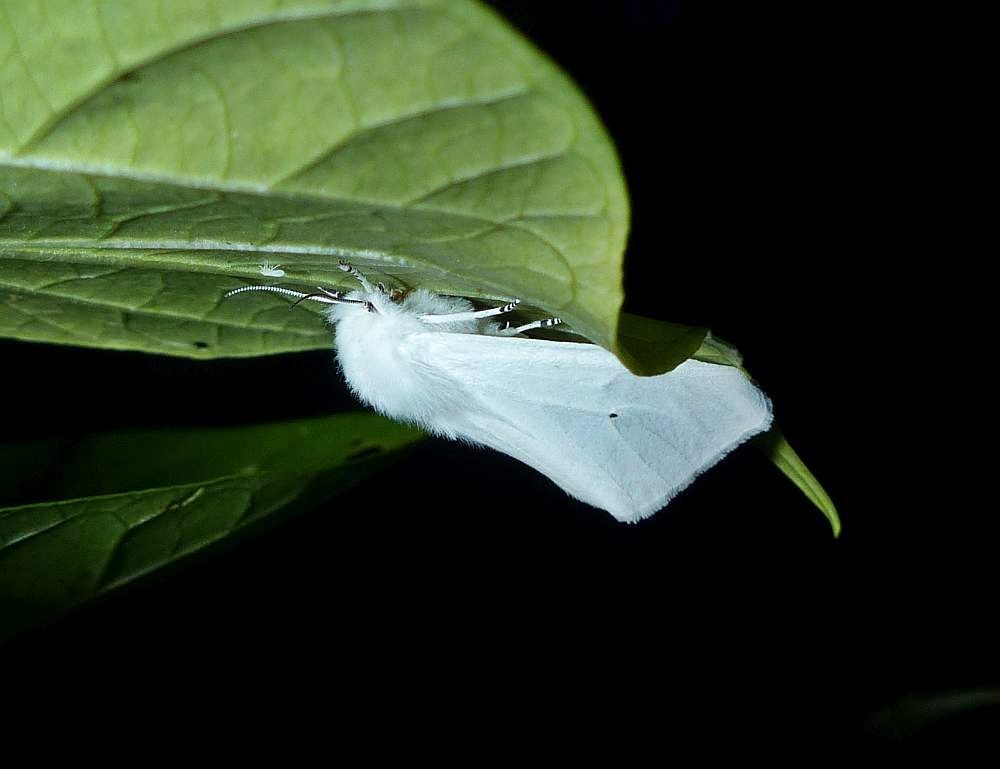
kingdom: Animalia
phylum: Arthropoda
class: Insecta
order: Lepidoptera
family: Erebidae
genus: Spilosoma
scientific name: Spilosoma virginica
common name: Virginia tiger moth
